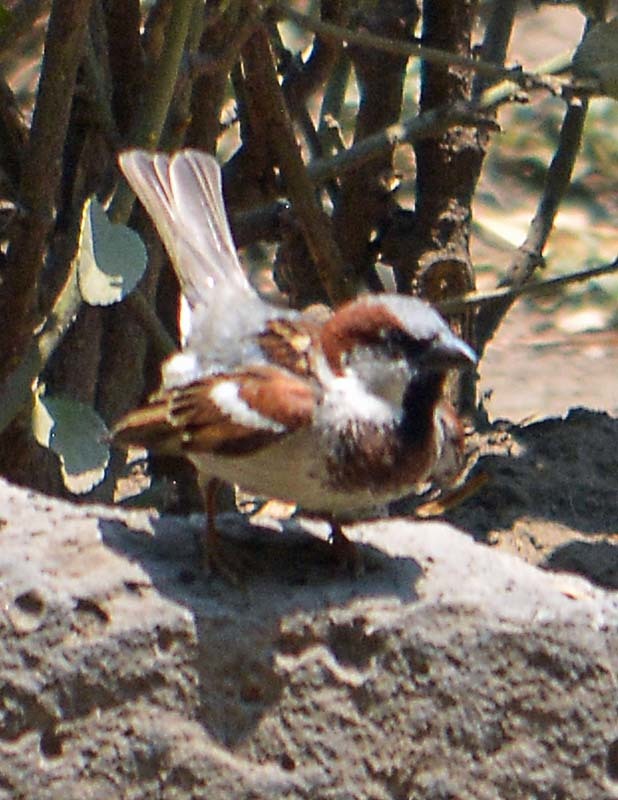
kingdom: Animalia
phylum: Chordata
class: Aves
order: Passeriformes
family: Passeridae
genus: Passer
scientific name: Passer domesticus
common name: House sparrow
